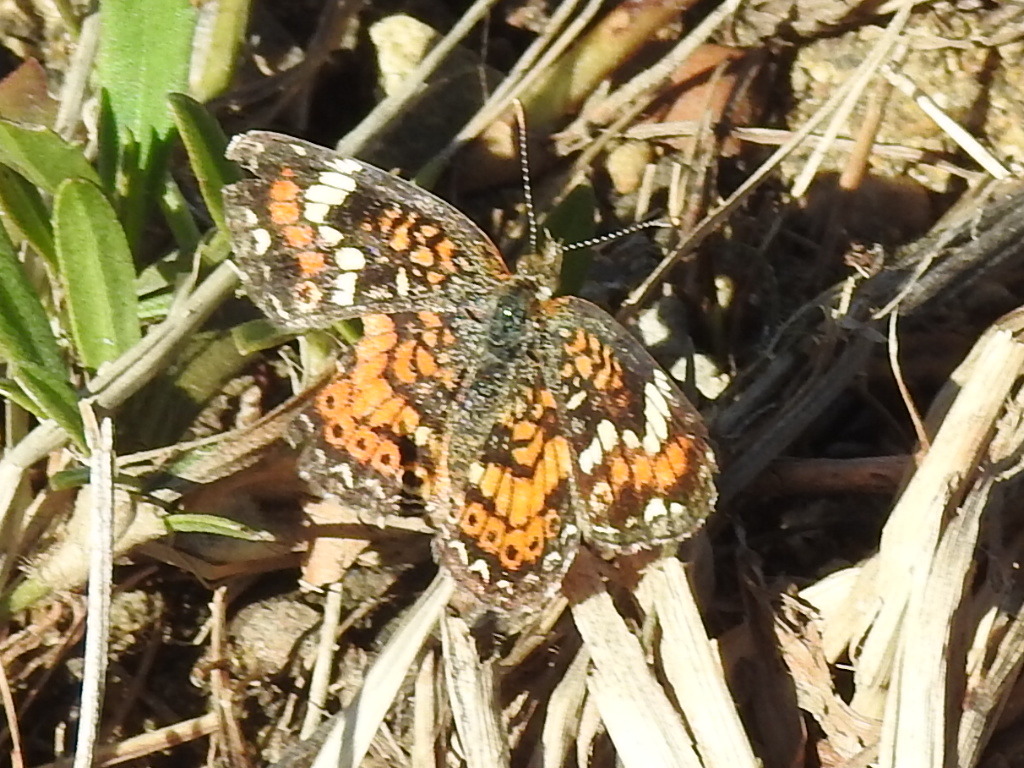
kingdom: Animalia
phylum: Arthropoda
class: Insecta
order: Lepidoptera
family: Nymphalidae
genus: Phyciodes
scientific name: Phyciodes phaon
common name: Phaon crescent
